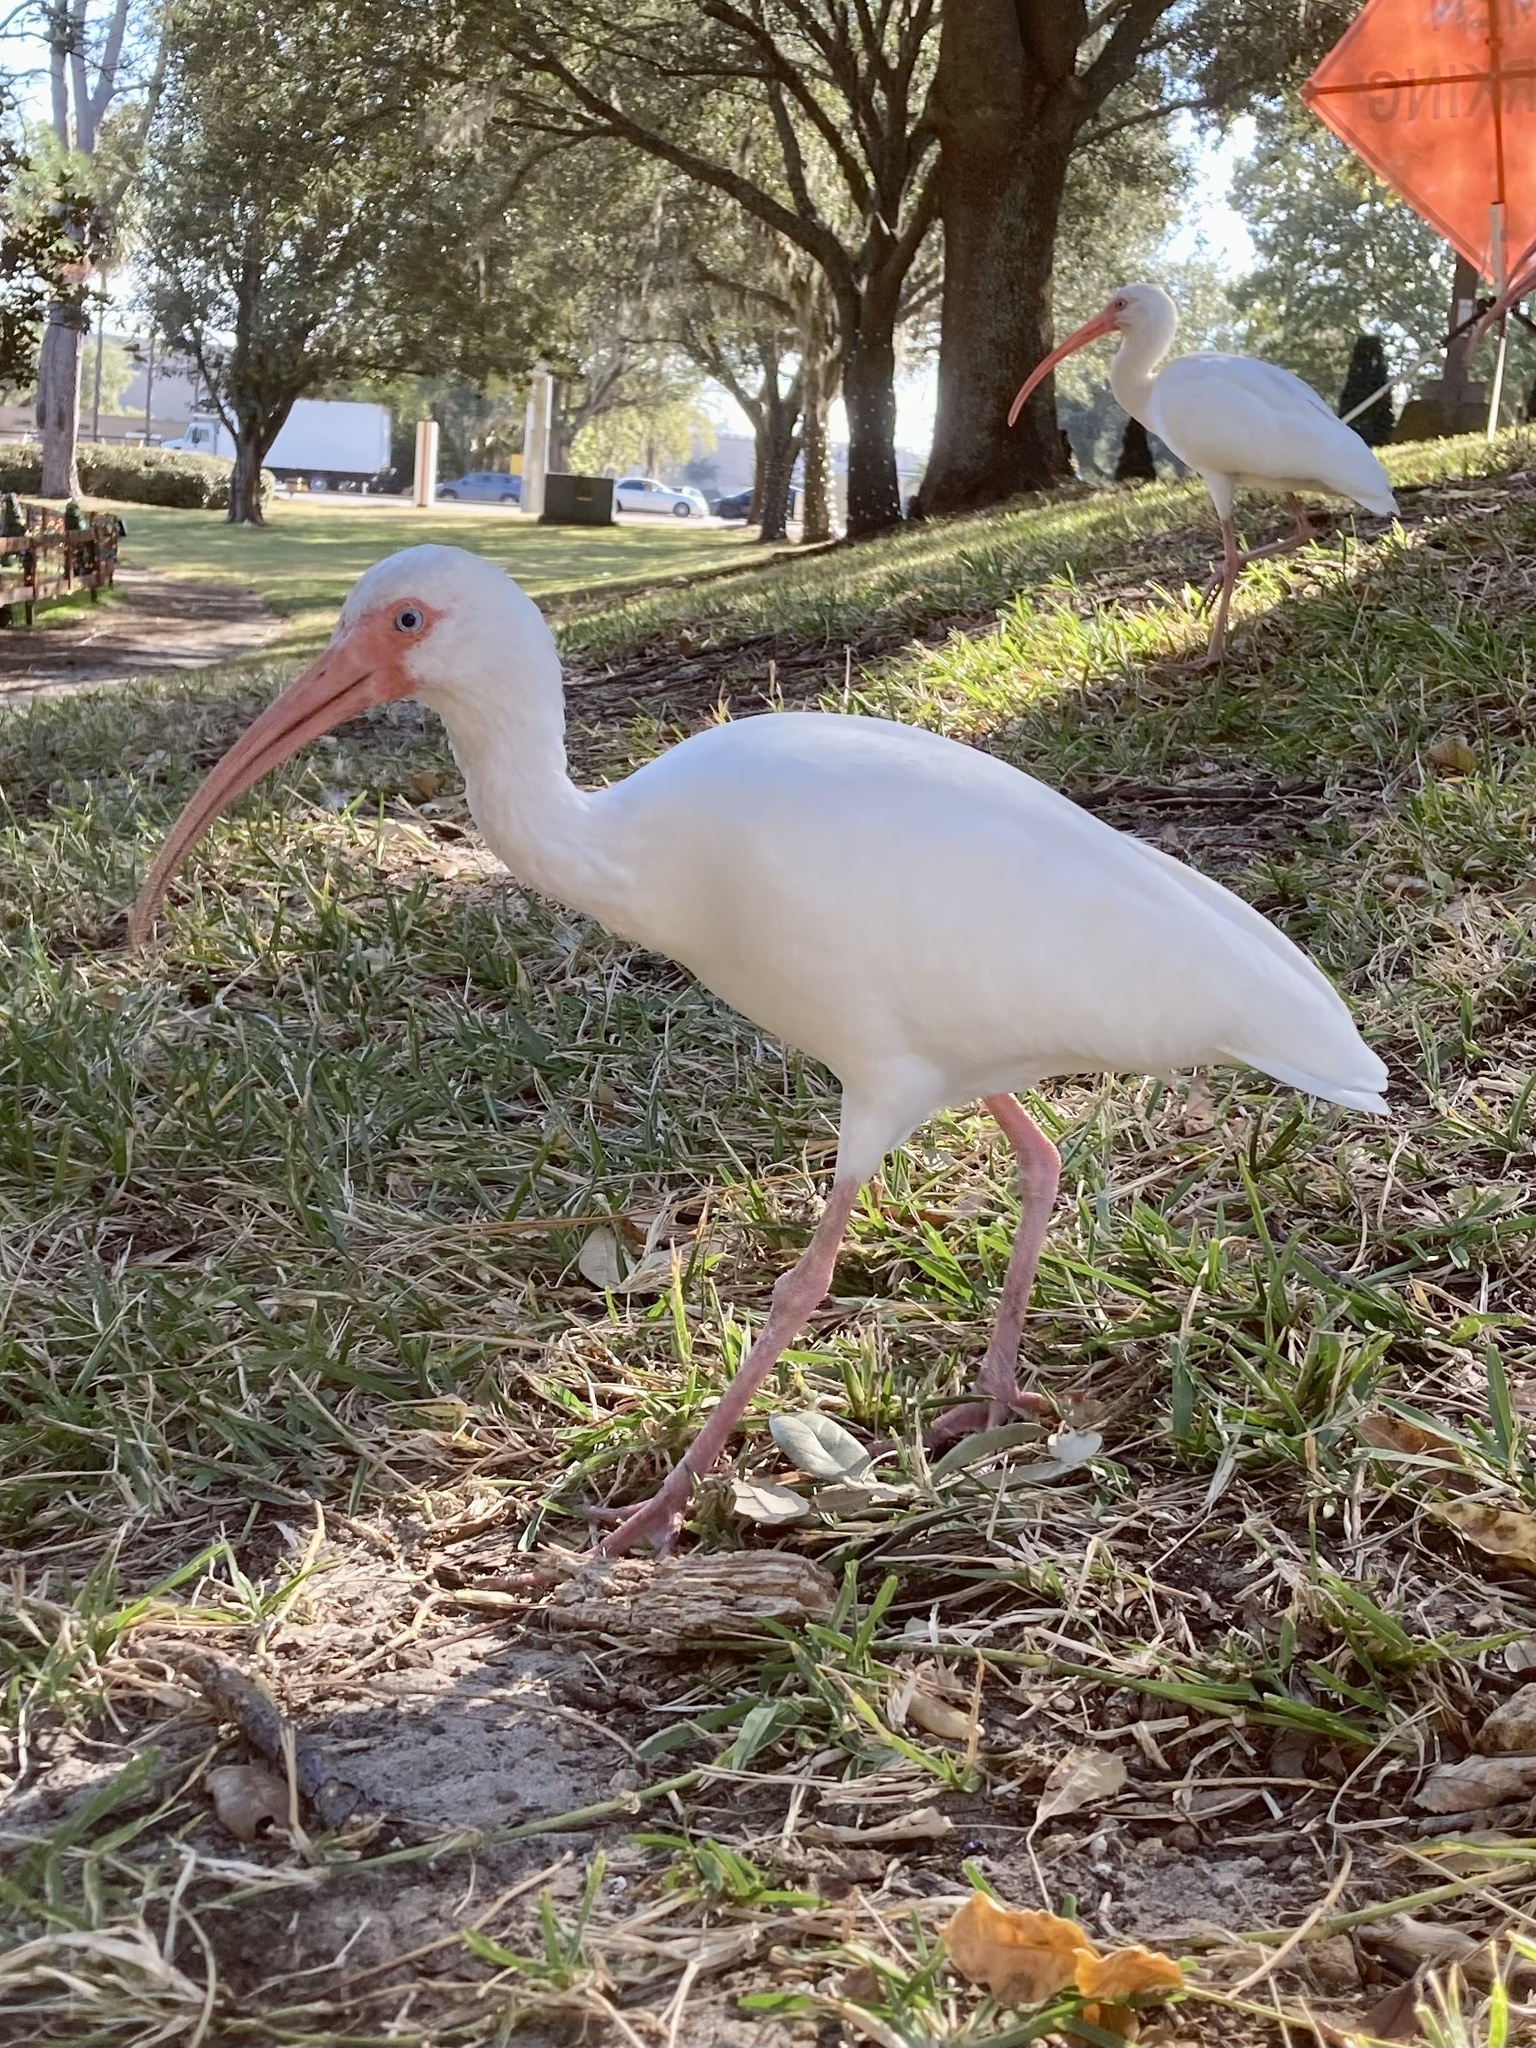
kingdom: Animalia
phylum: Chordata
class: Aves
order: Pelecaniformes
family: Threskiornithidae
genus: Eudocimus
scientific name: Eudocimus albus
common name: White ibis
